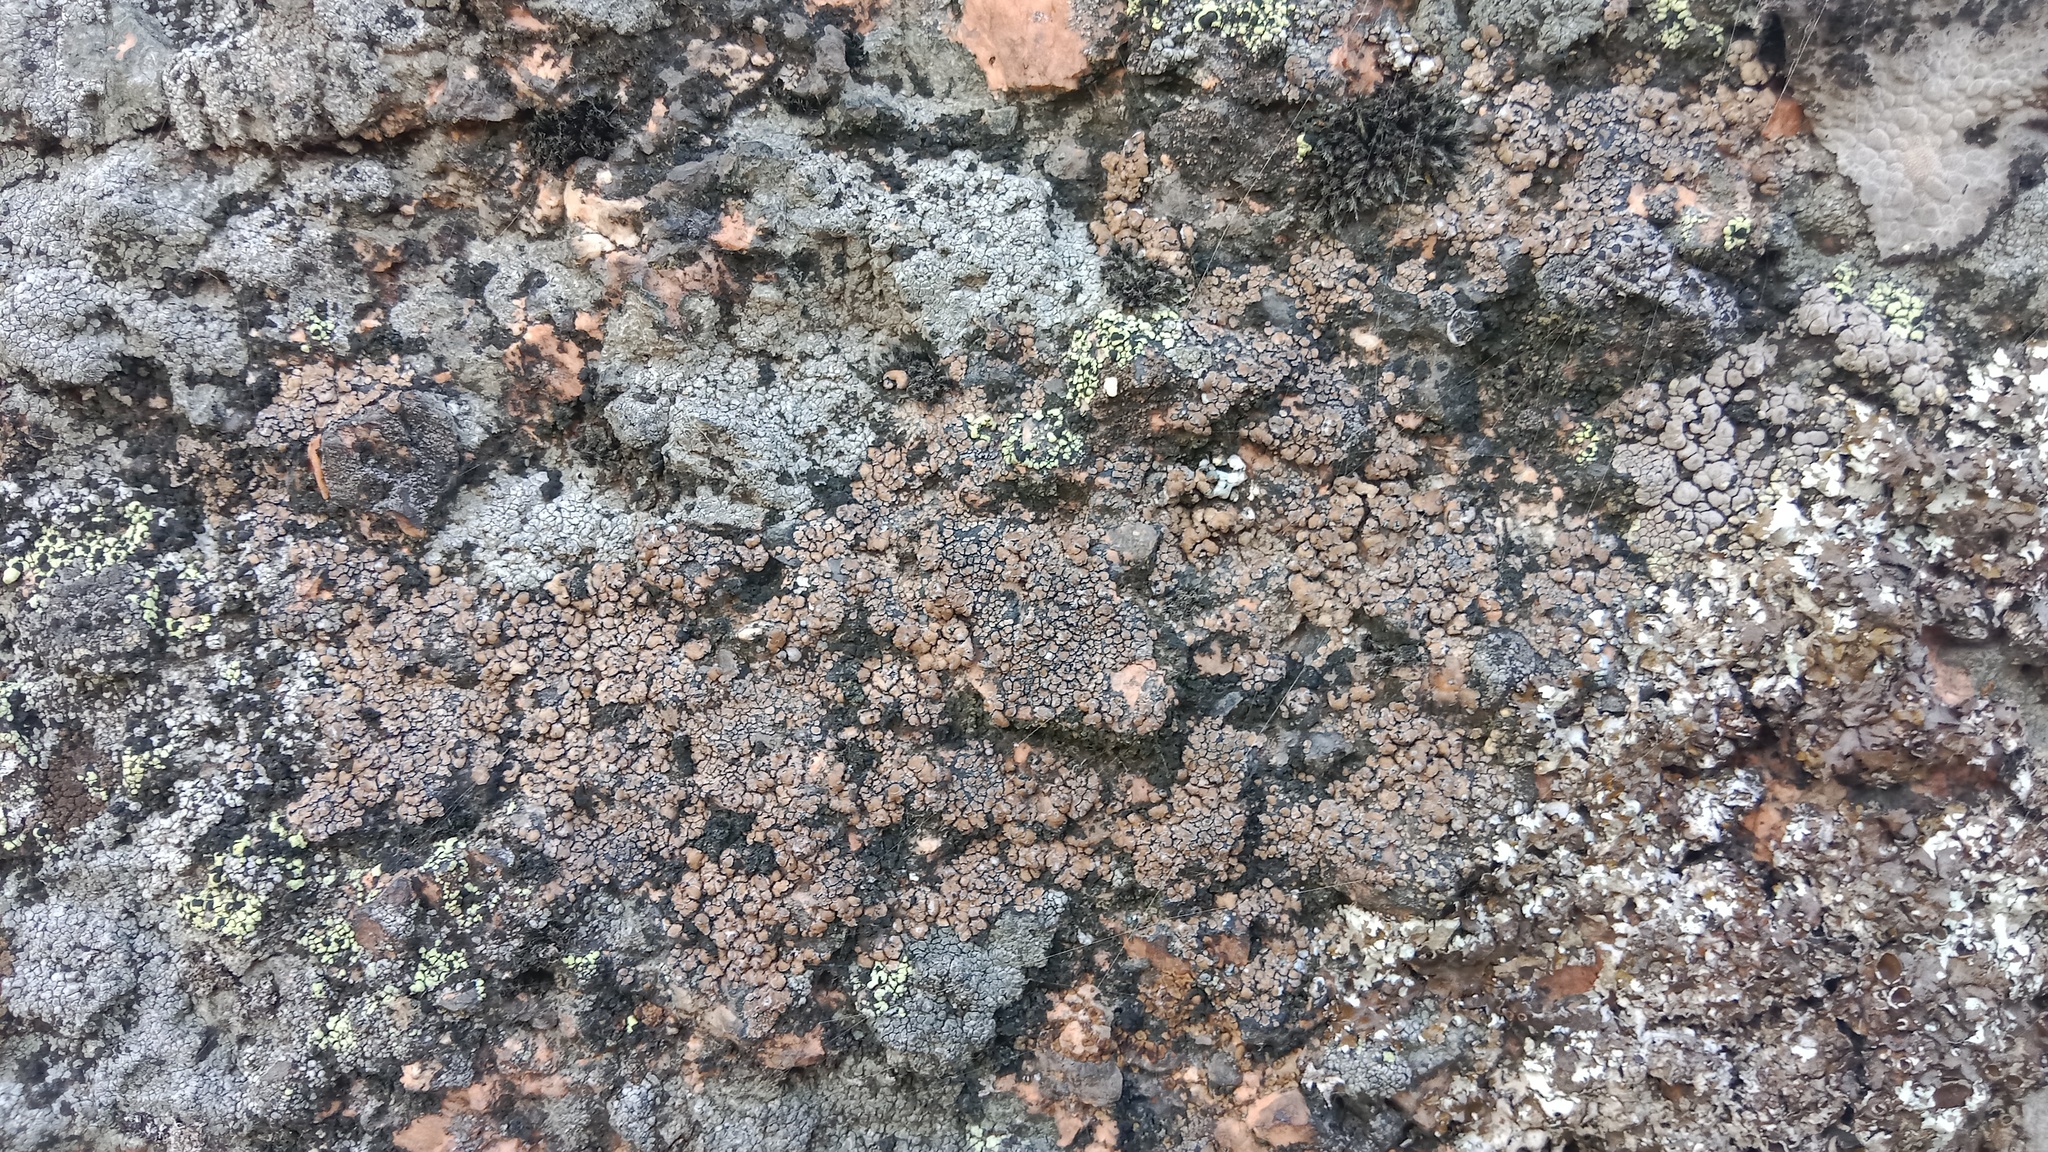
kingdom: Fungi
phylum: Ascomycota
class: Lecanoromycetes
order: Lecideales
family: Lecideaceae
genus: Lecidea
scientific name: Lecidea fuscoatra
